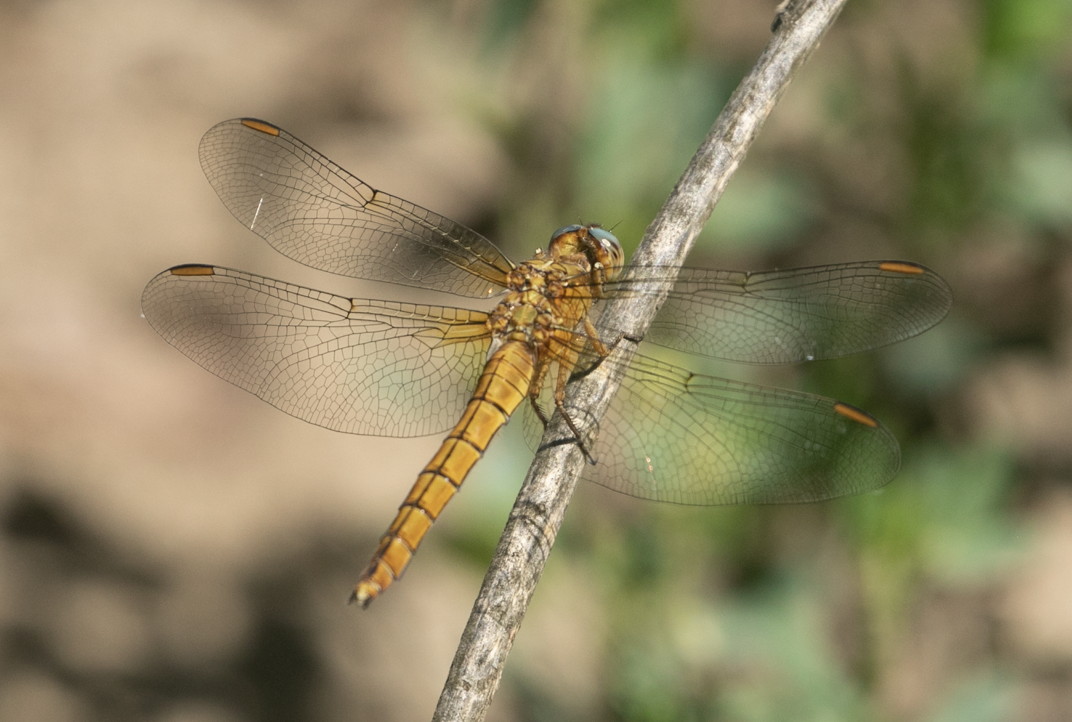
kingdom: Animalia
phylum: Arthropoda
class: Insecta
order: Odonata
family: Libellulidae
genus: Orthetrum
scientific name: Orthetrum coerulescens
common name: Keeled skimmer
